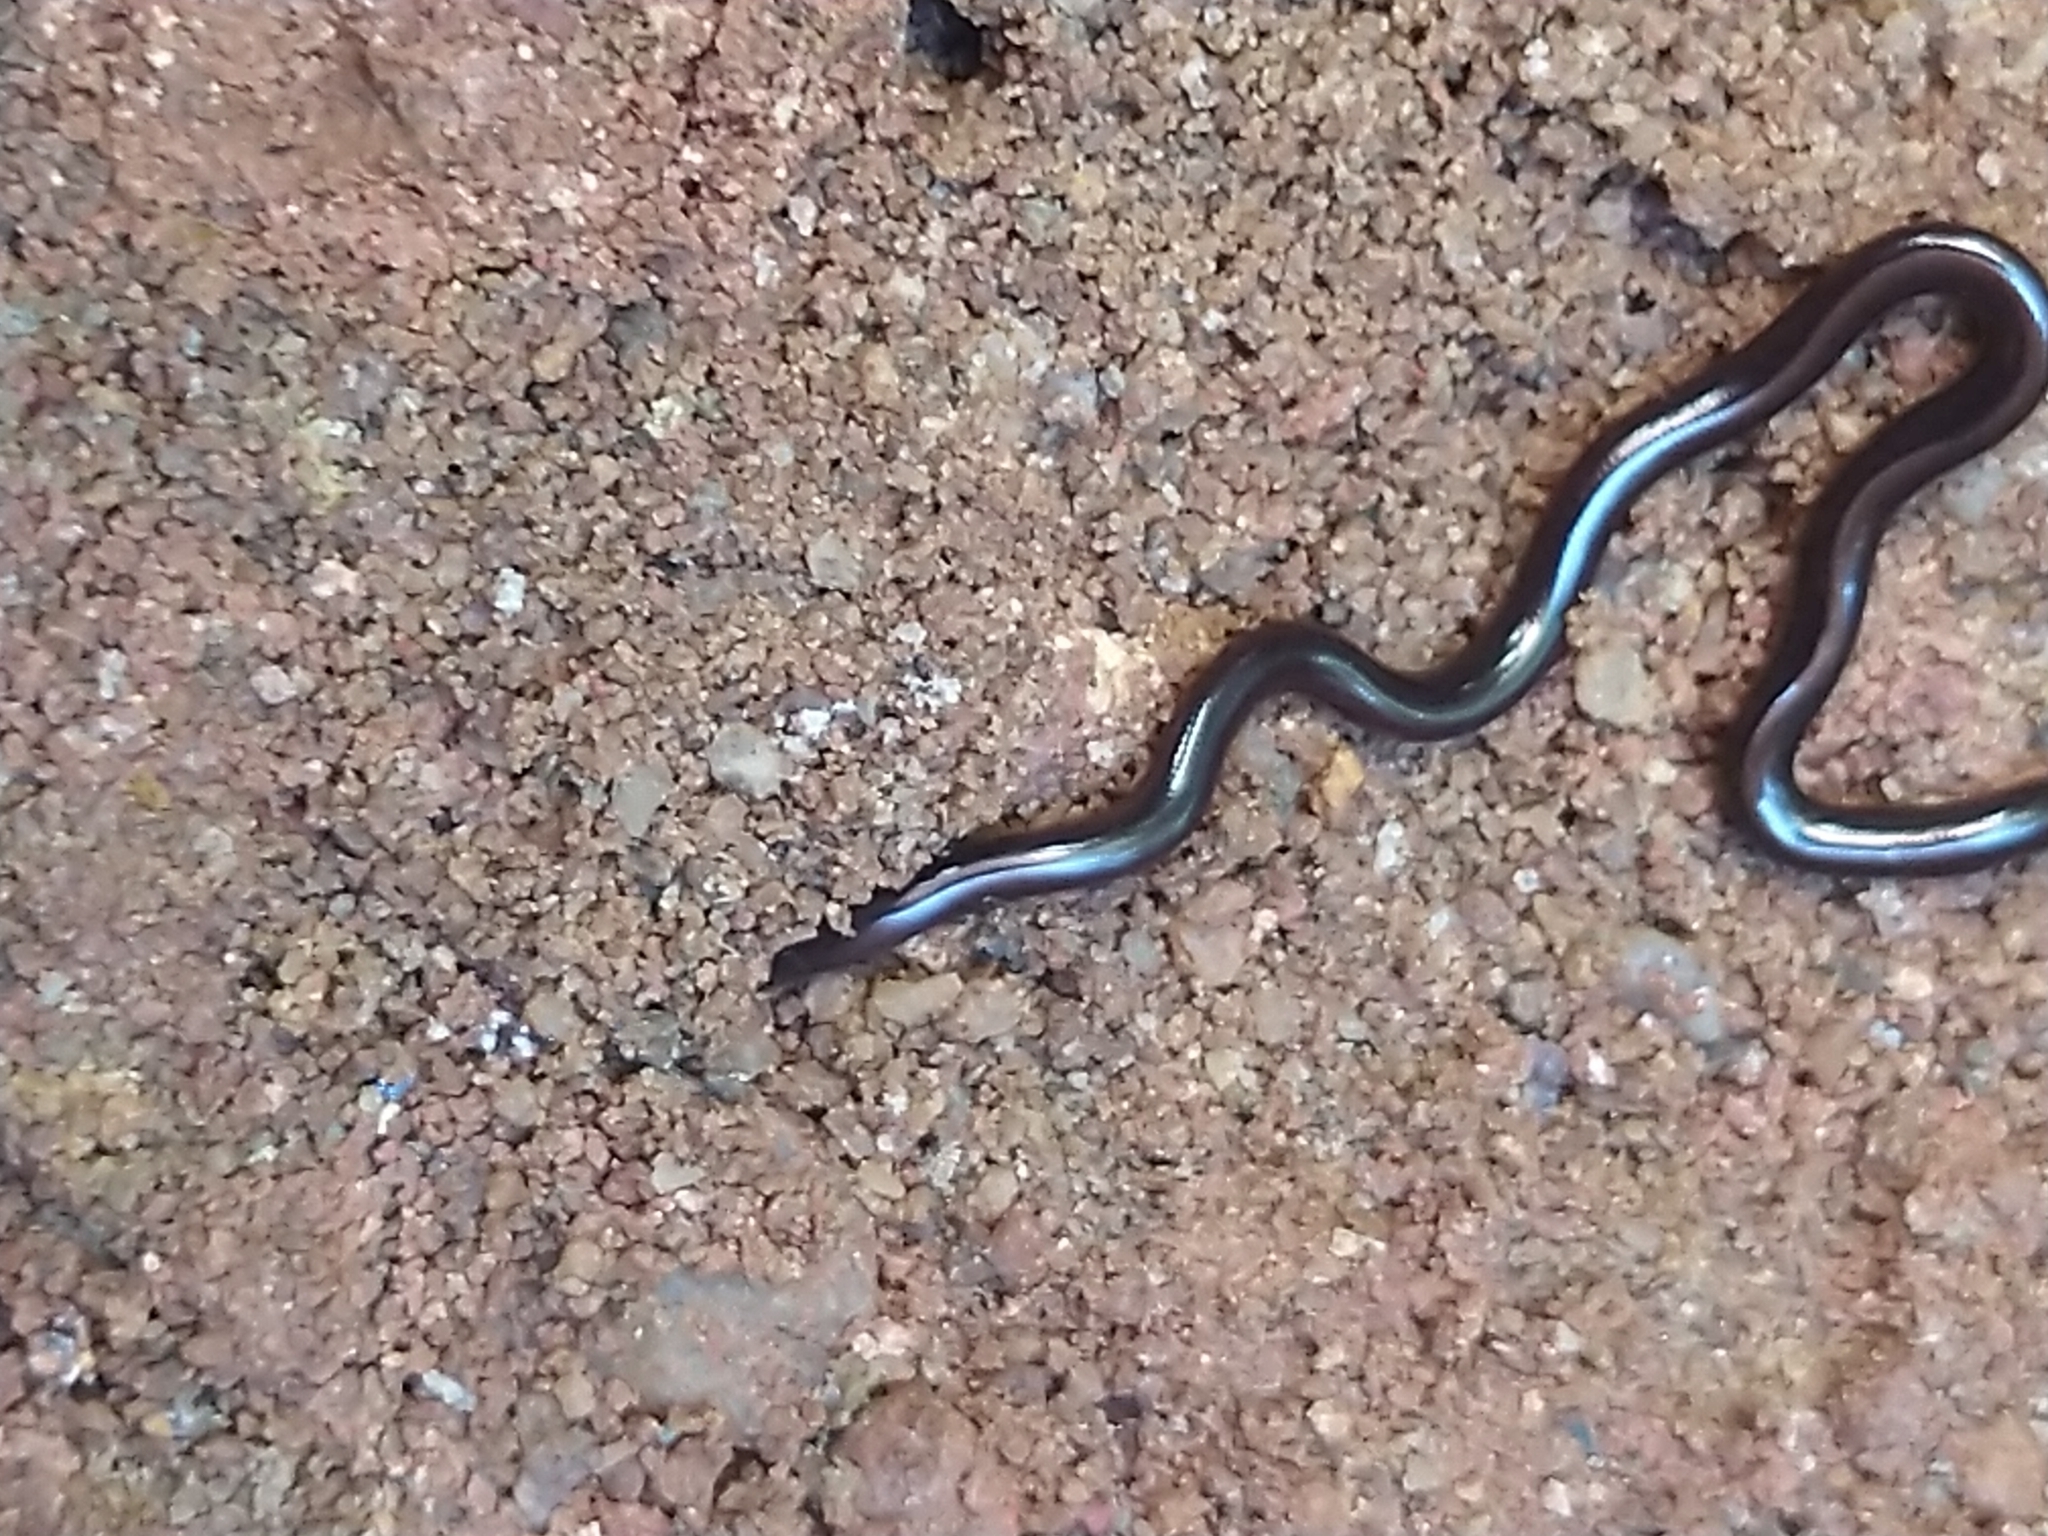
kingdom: Animalia
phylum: Chordata
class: Squamata
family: Typhlopidae
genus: Indotyphlops
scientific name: Indotyphlops braminus
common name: Brahminy blindsnake
